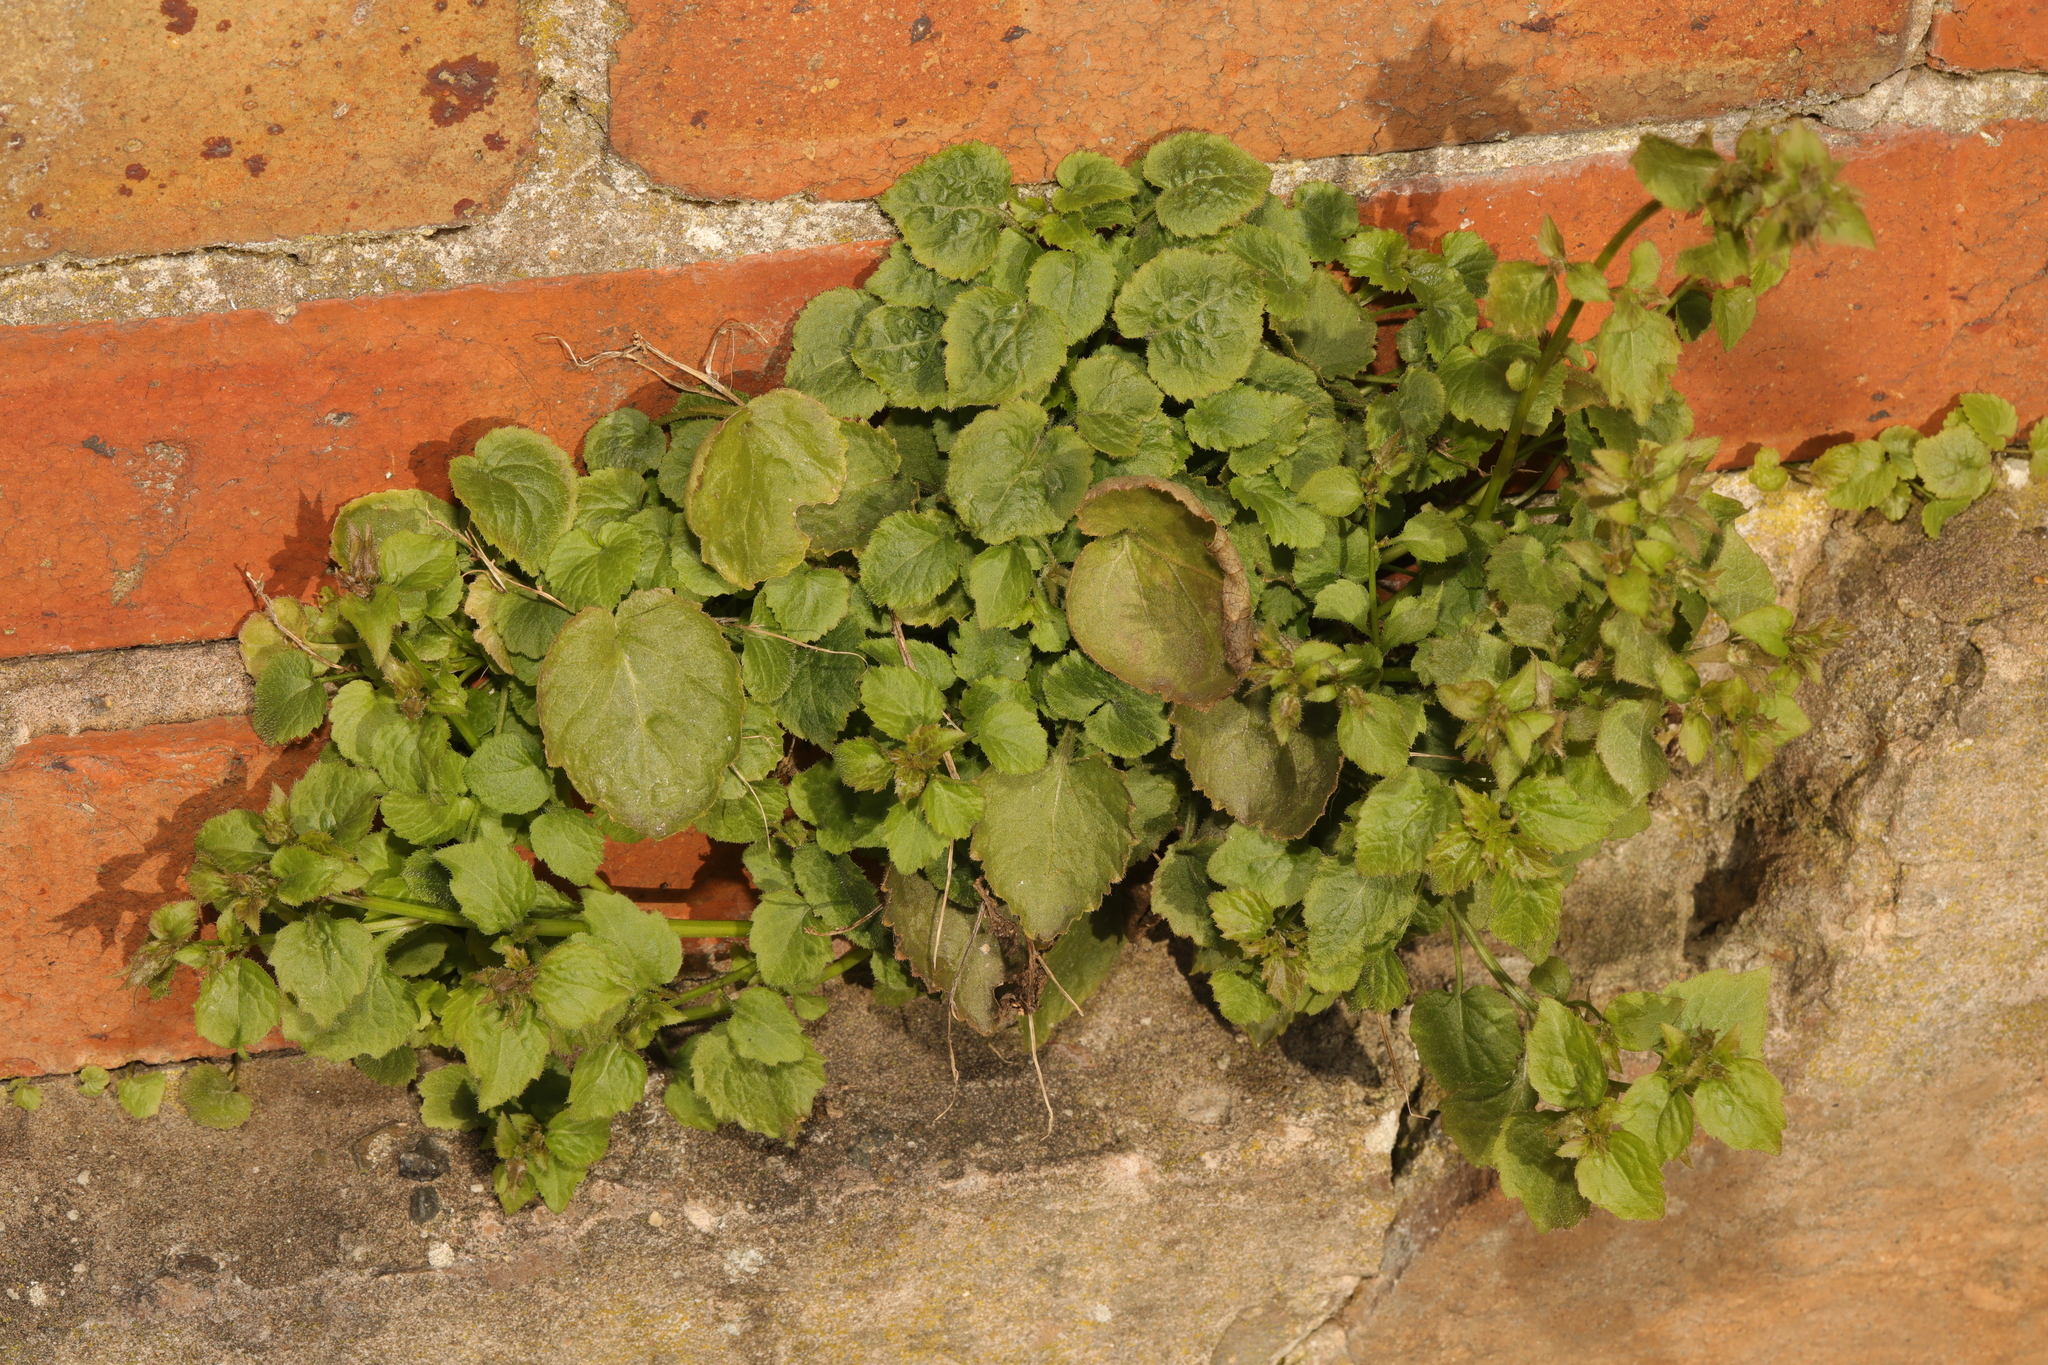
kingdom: Plantae
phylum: Tracheophyta
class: Magnoliopsida
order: Asterales
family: Campanulaceae
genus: Campanula
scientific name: Campanula poscharskyana
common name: Trailing bellflower
